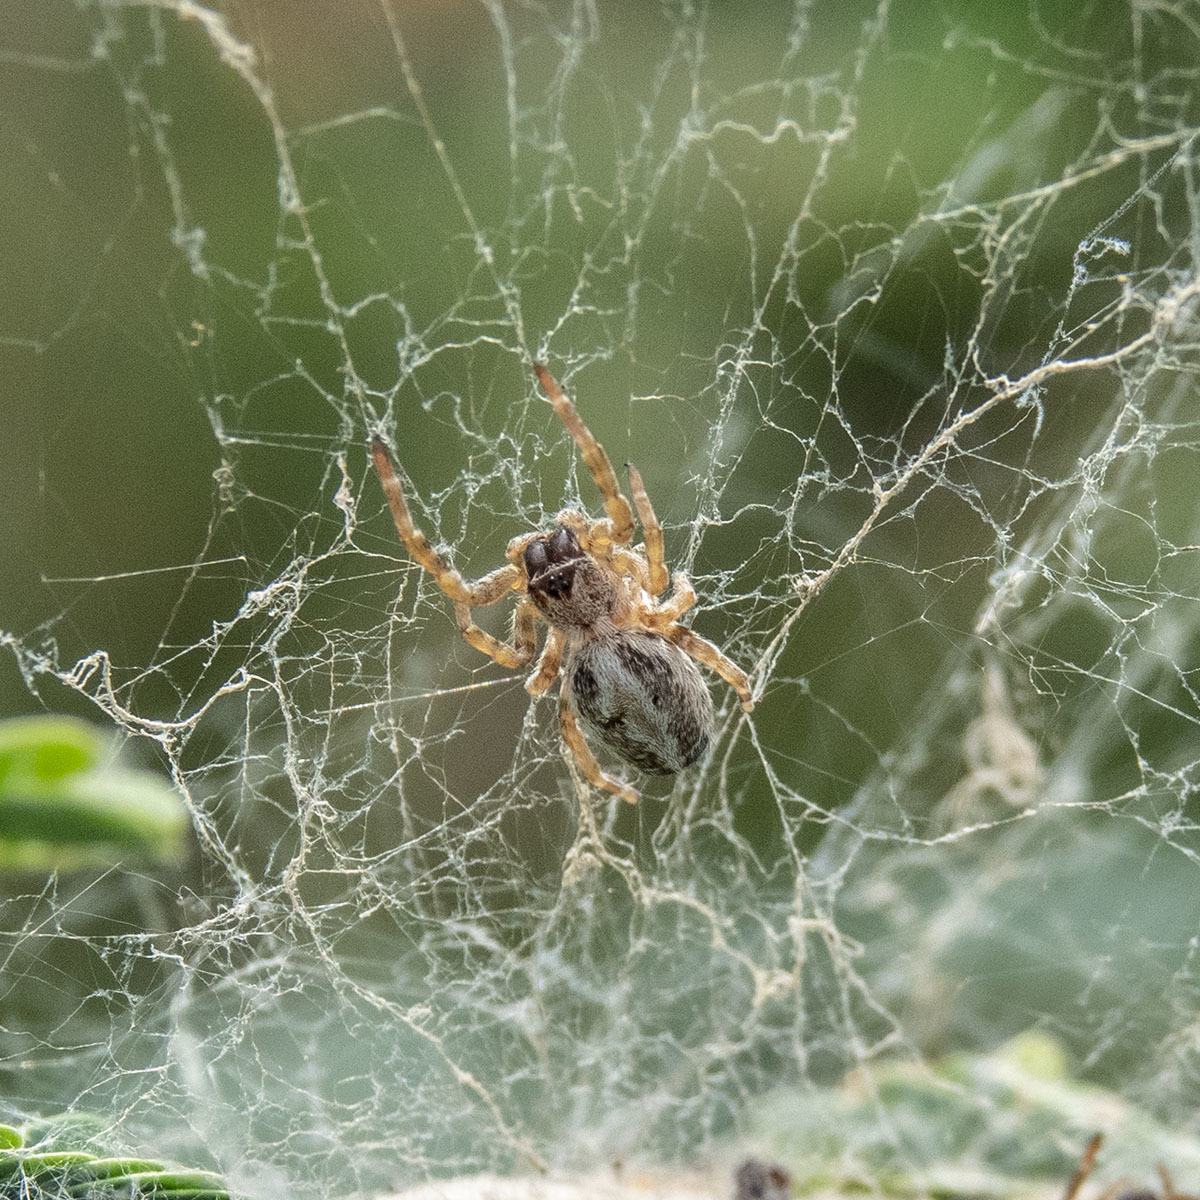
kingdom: Animalia
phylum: Arthropoda
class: Arachnida
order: Araneae
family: Eresidae
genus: Stegodyphus
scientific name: Stegodyphus sarasinorum
